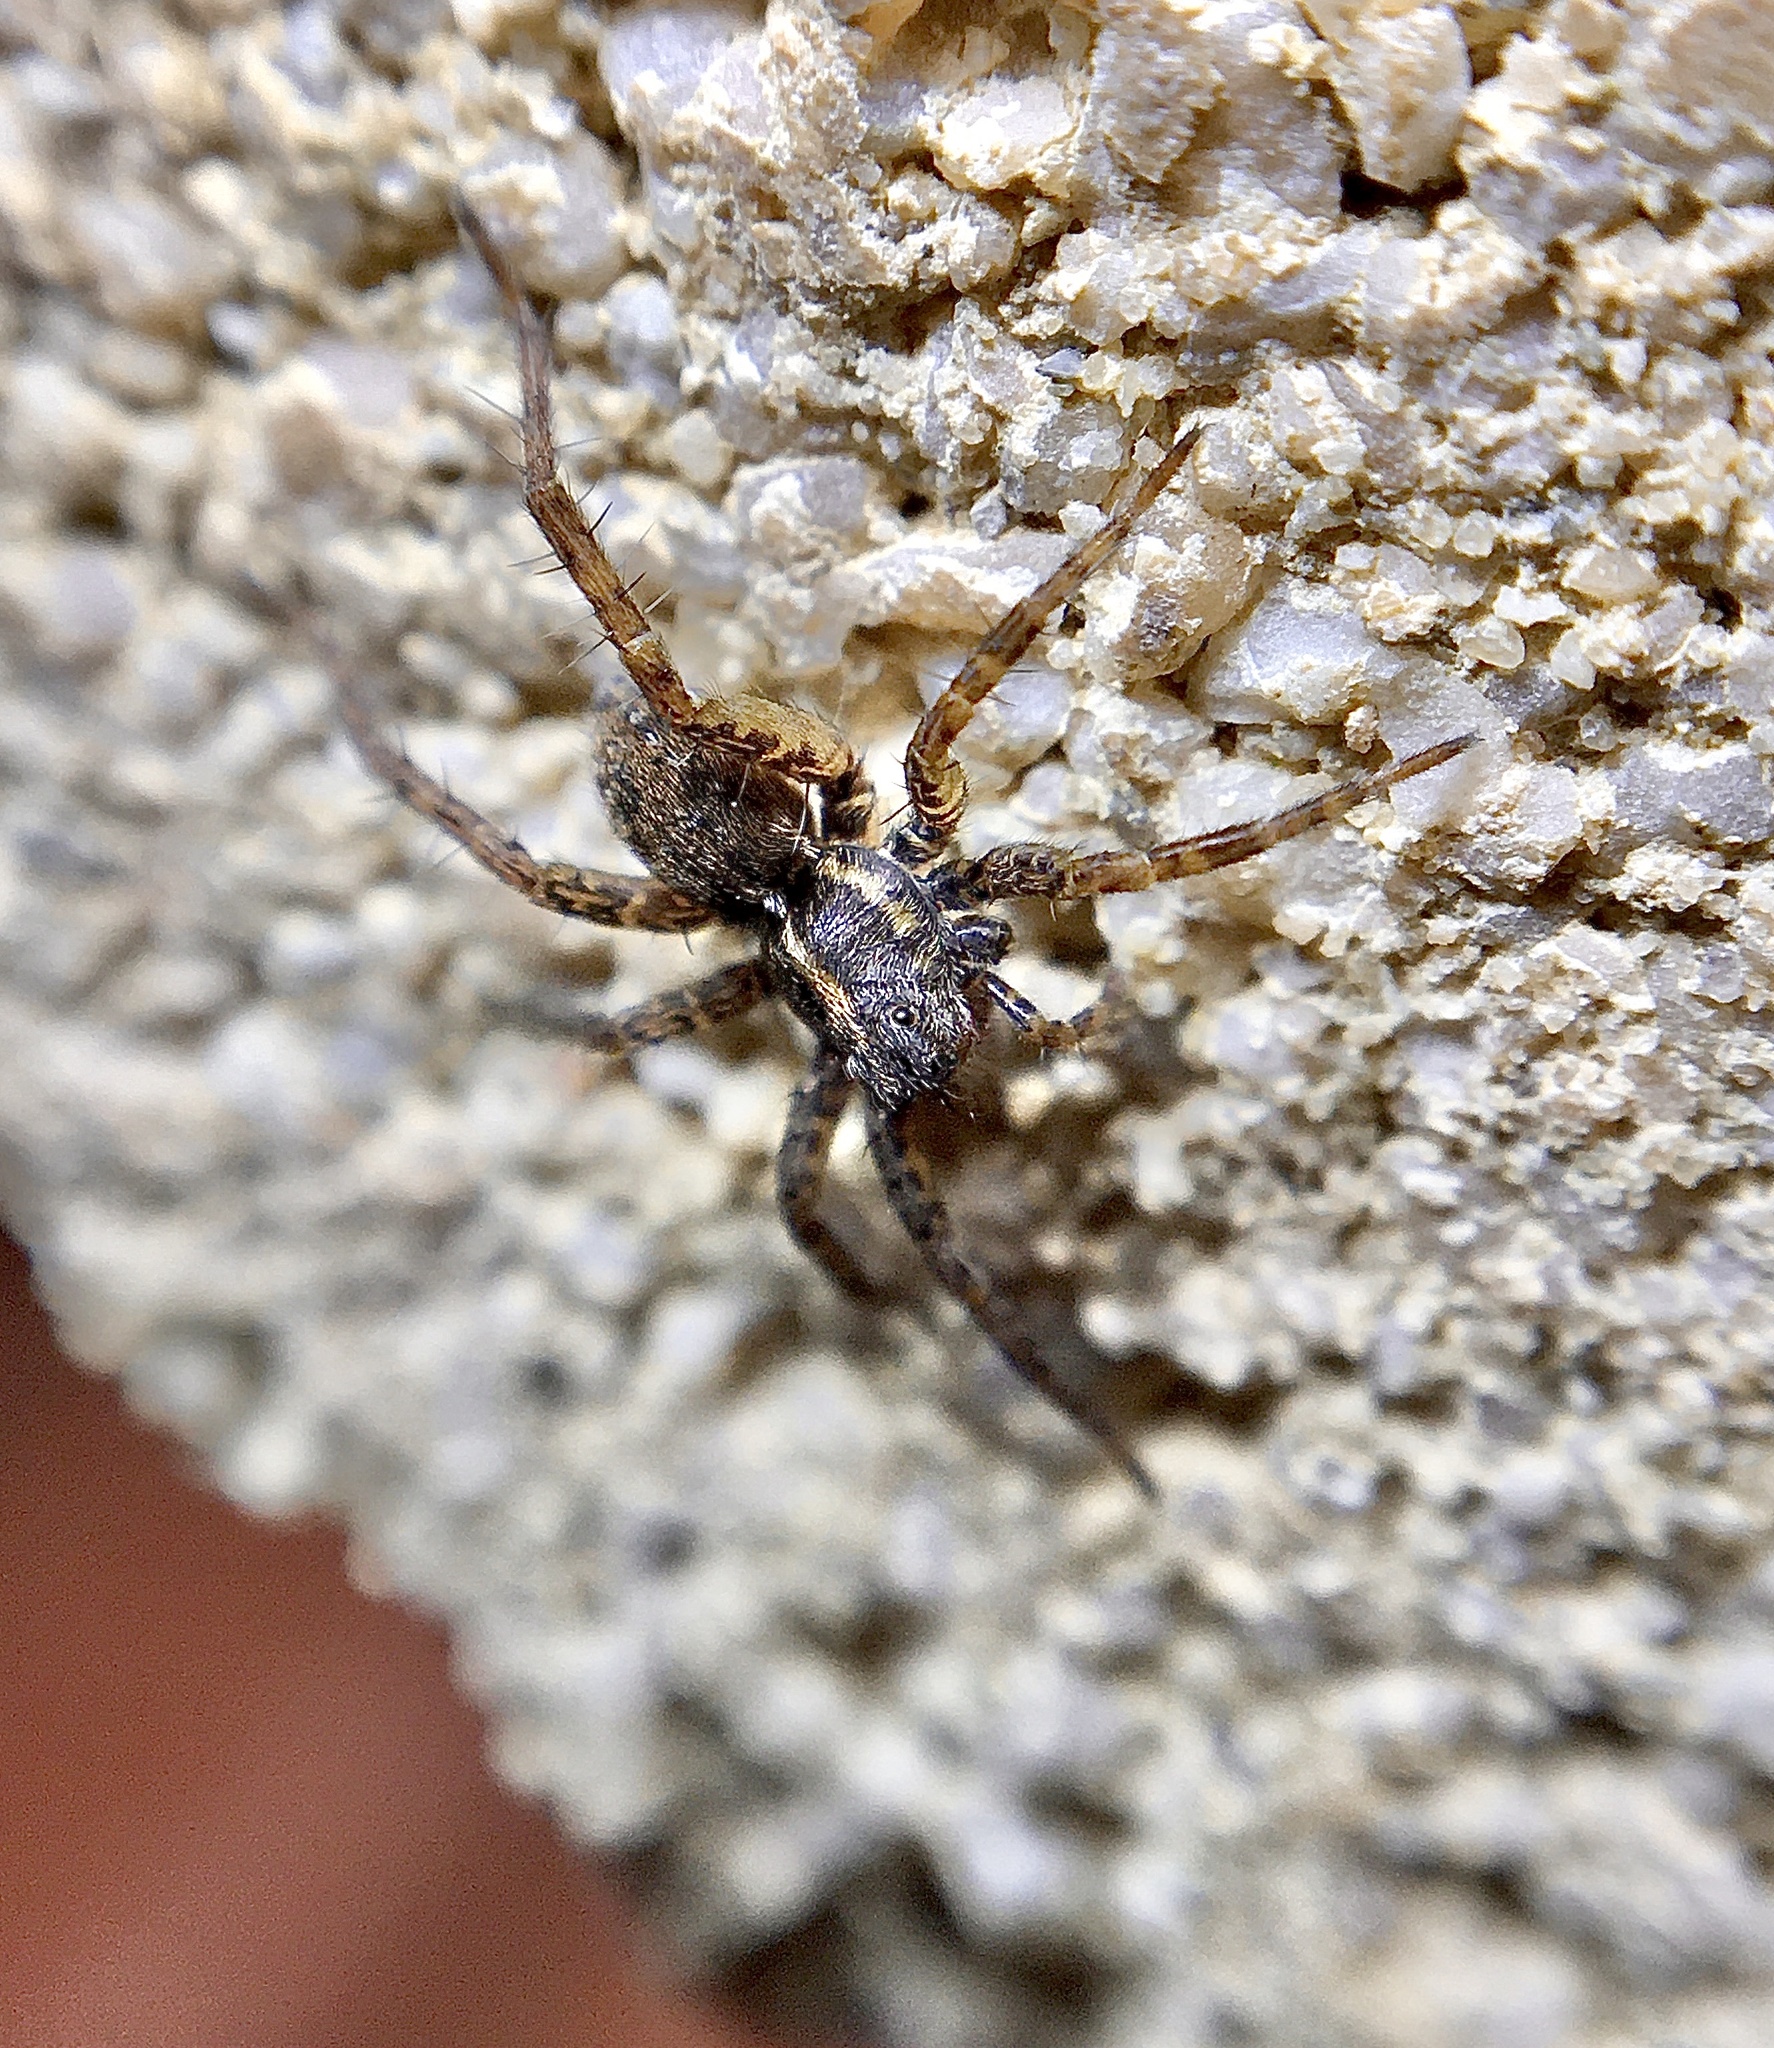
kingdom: Animalia
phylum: Arthropoda
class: Arachnida
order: Araneae
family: Lycosidae
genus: Pardosa
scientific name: Pardosa
